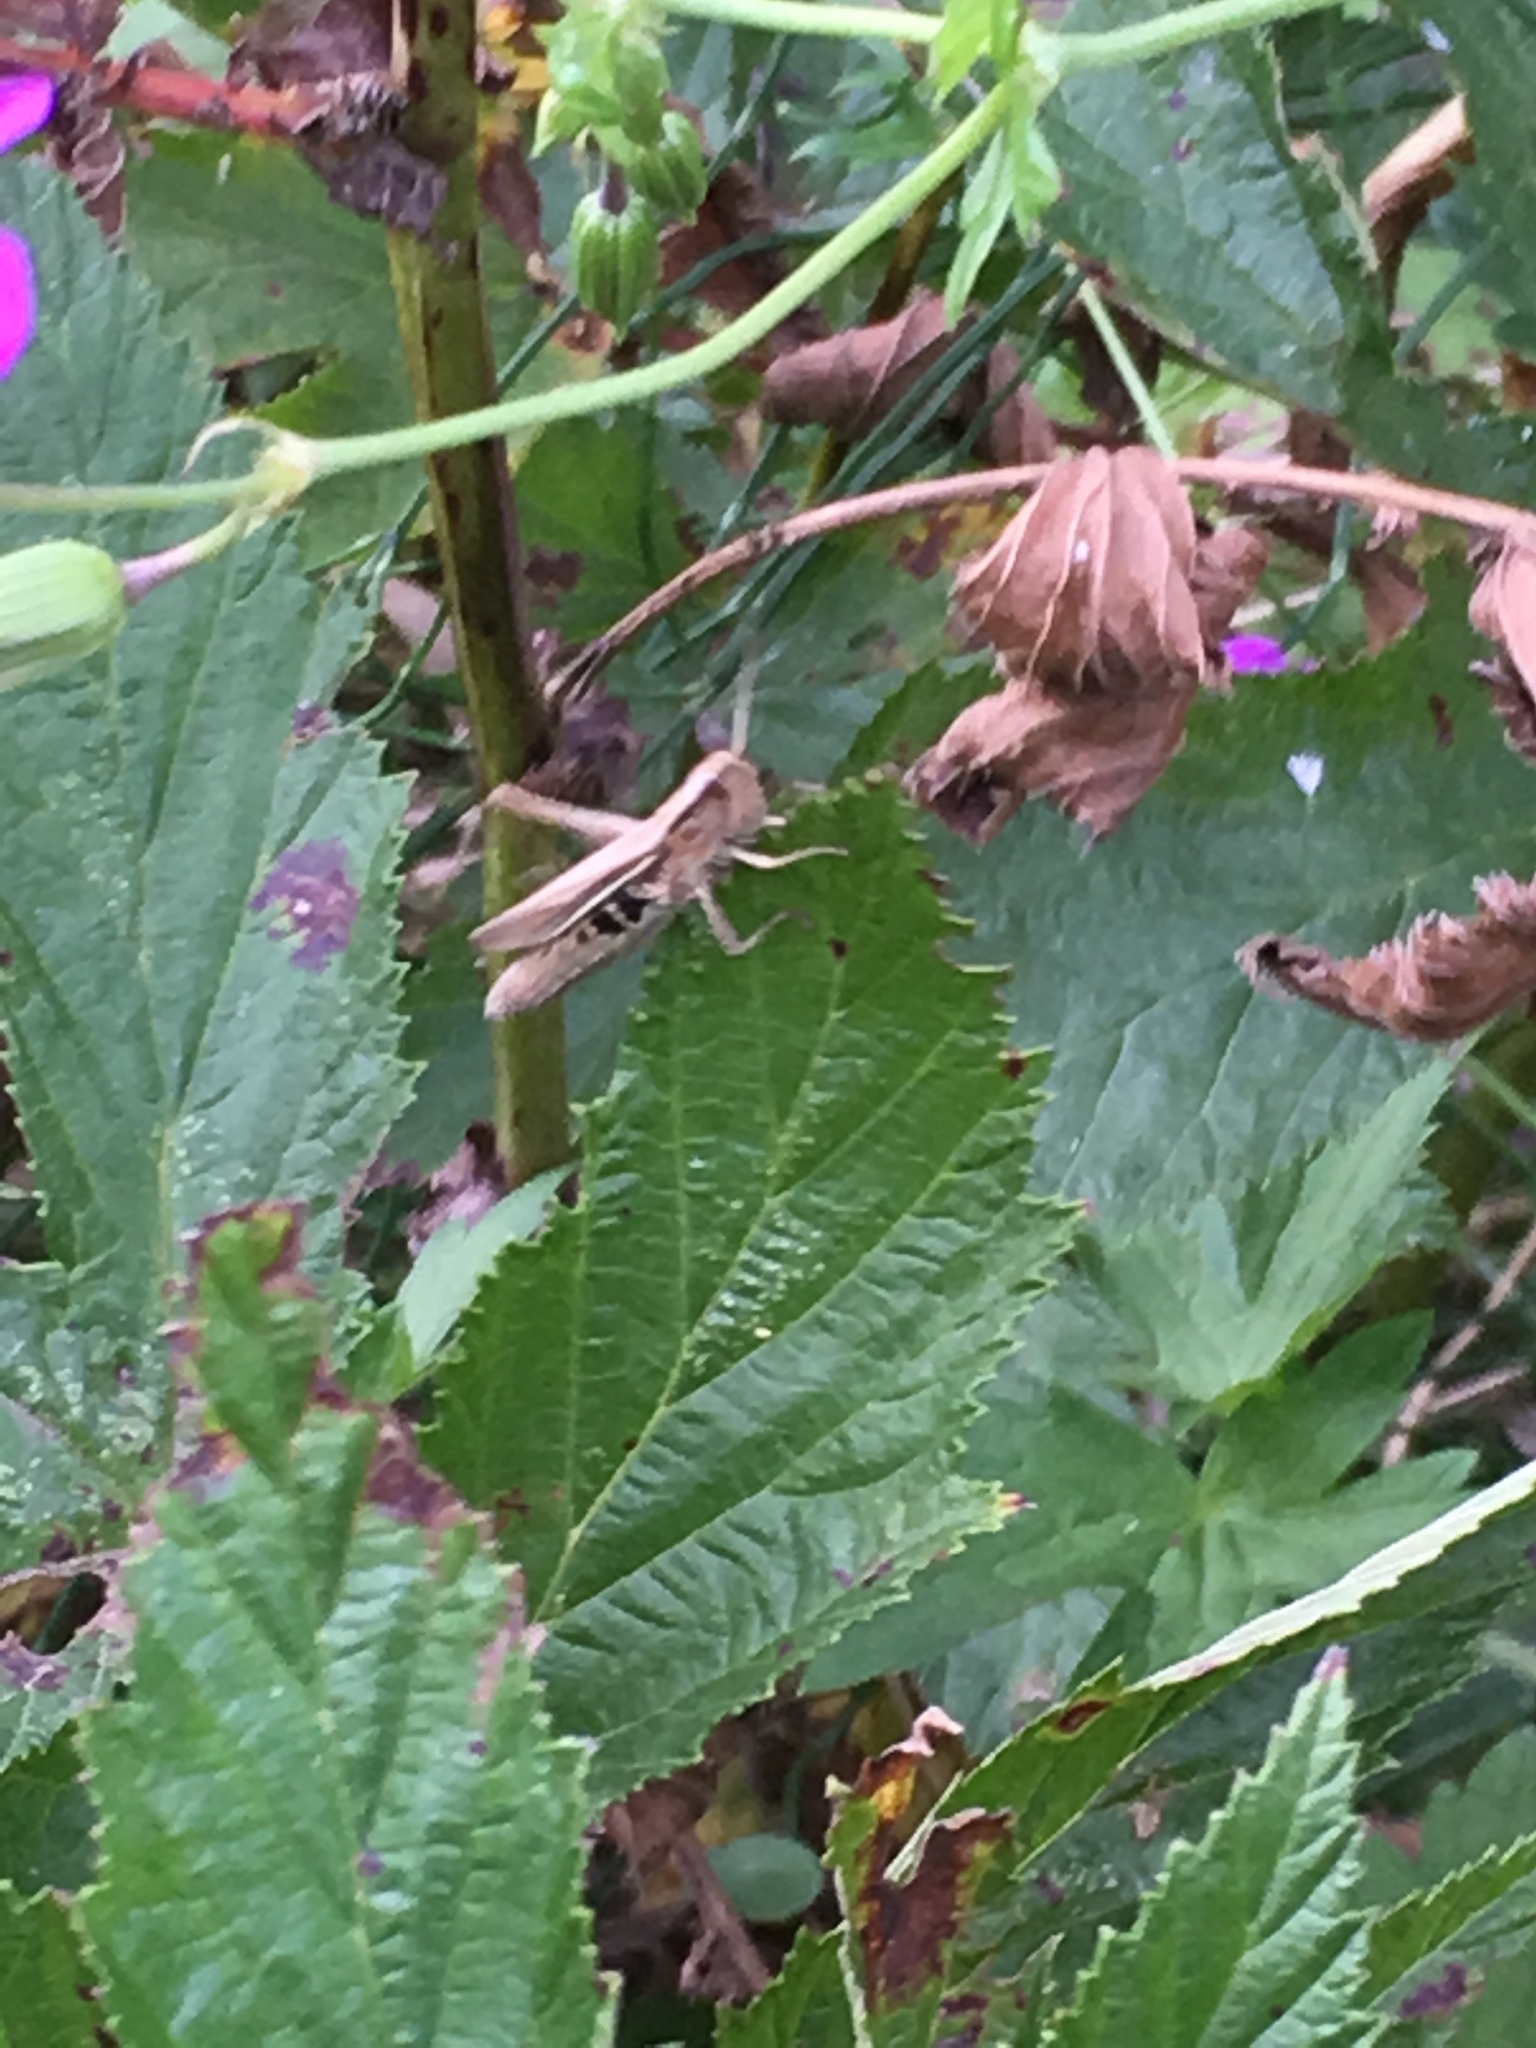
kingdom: Animalia
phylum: Arthropoda
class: Insecta
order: Orthoptera
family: Acrididae
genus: Chorthippus
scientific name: Chorthippus albomarginatus
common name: Lesser marsh grasshopper
